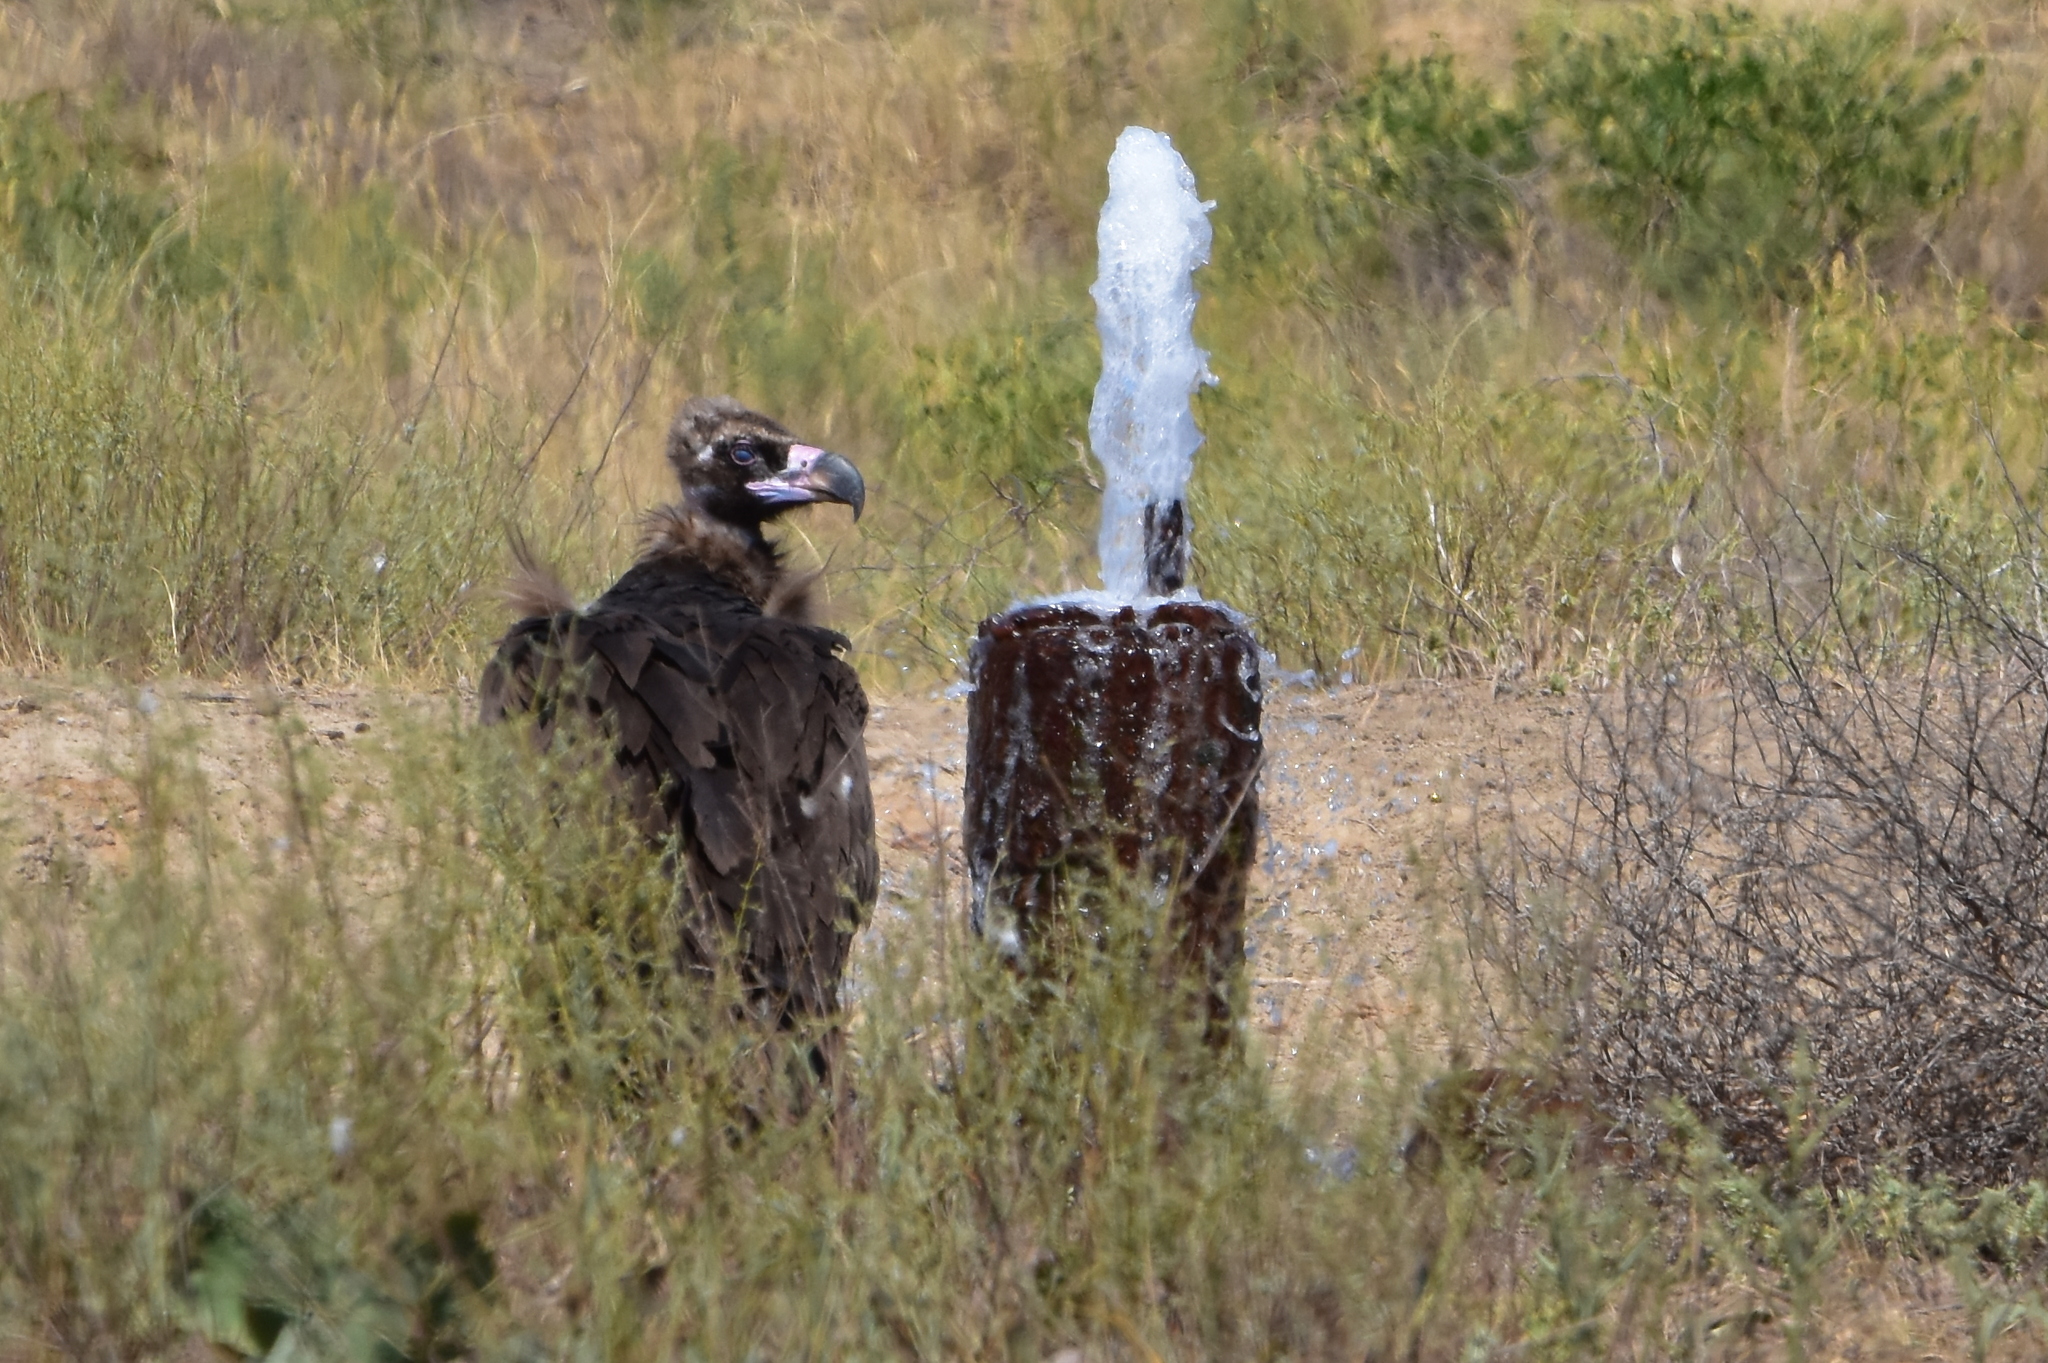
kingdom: Animalia
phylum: Chordata
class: Aves
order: Accipitriformes
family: Accipitridae
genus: Aegypius
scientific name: Aegypius monachus
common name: Cinereous vulture
